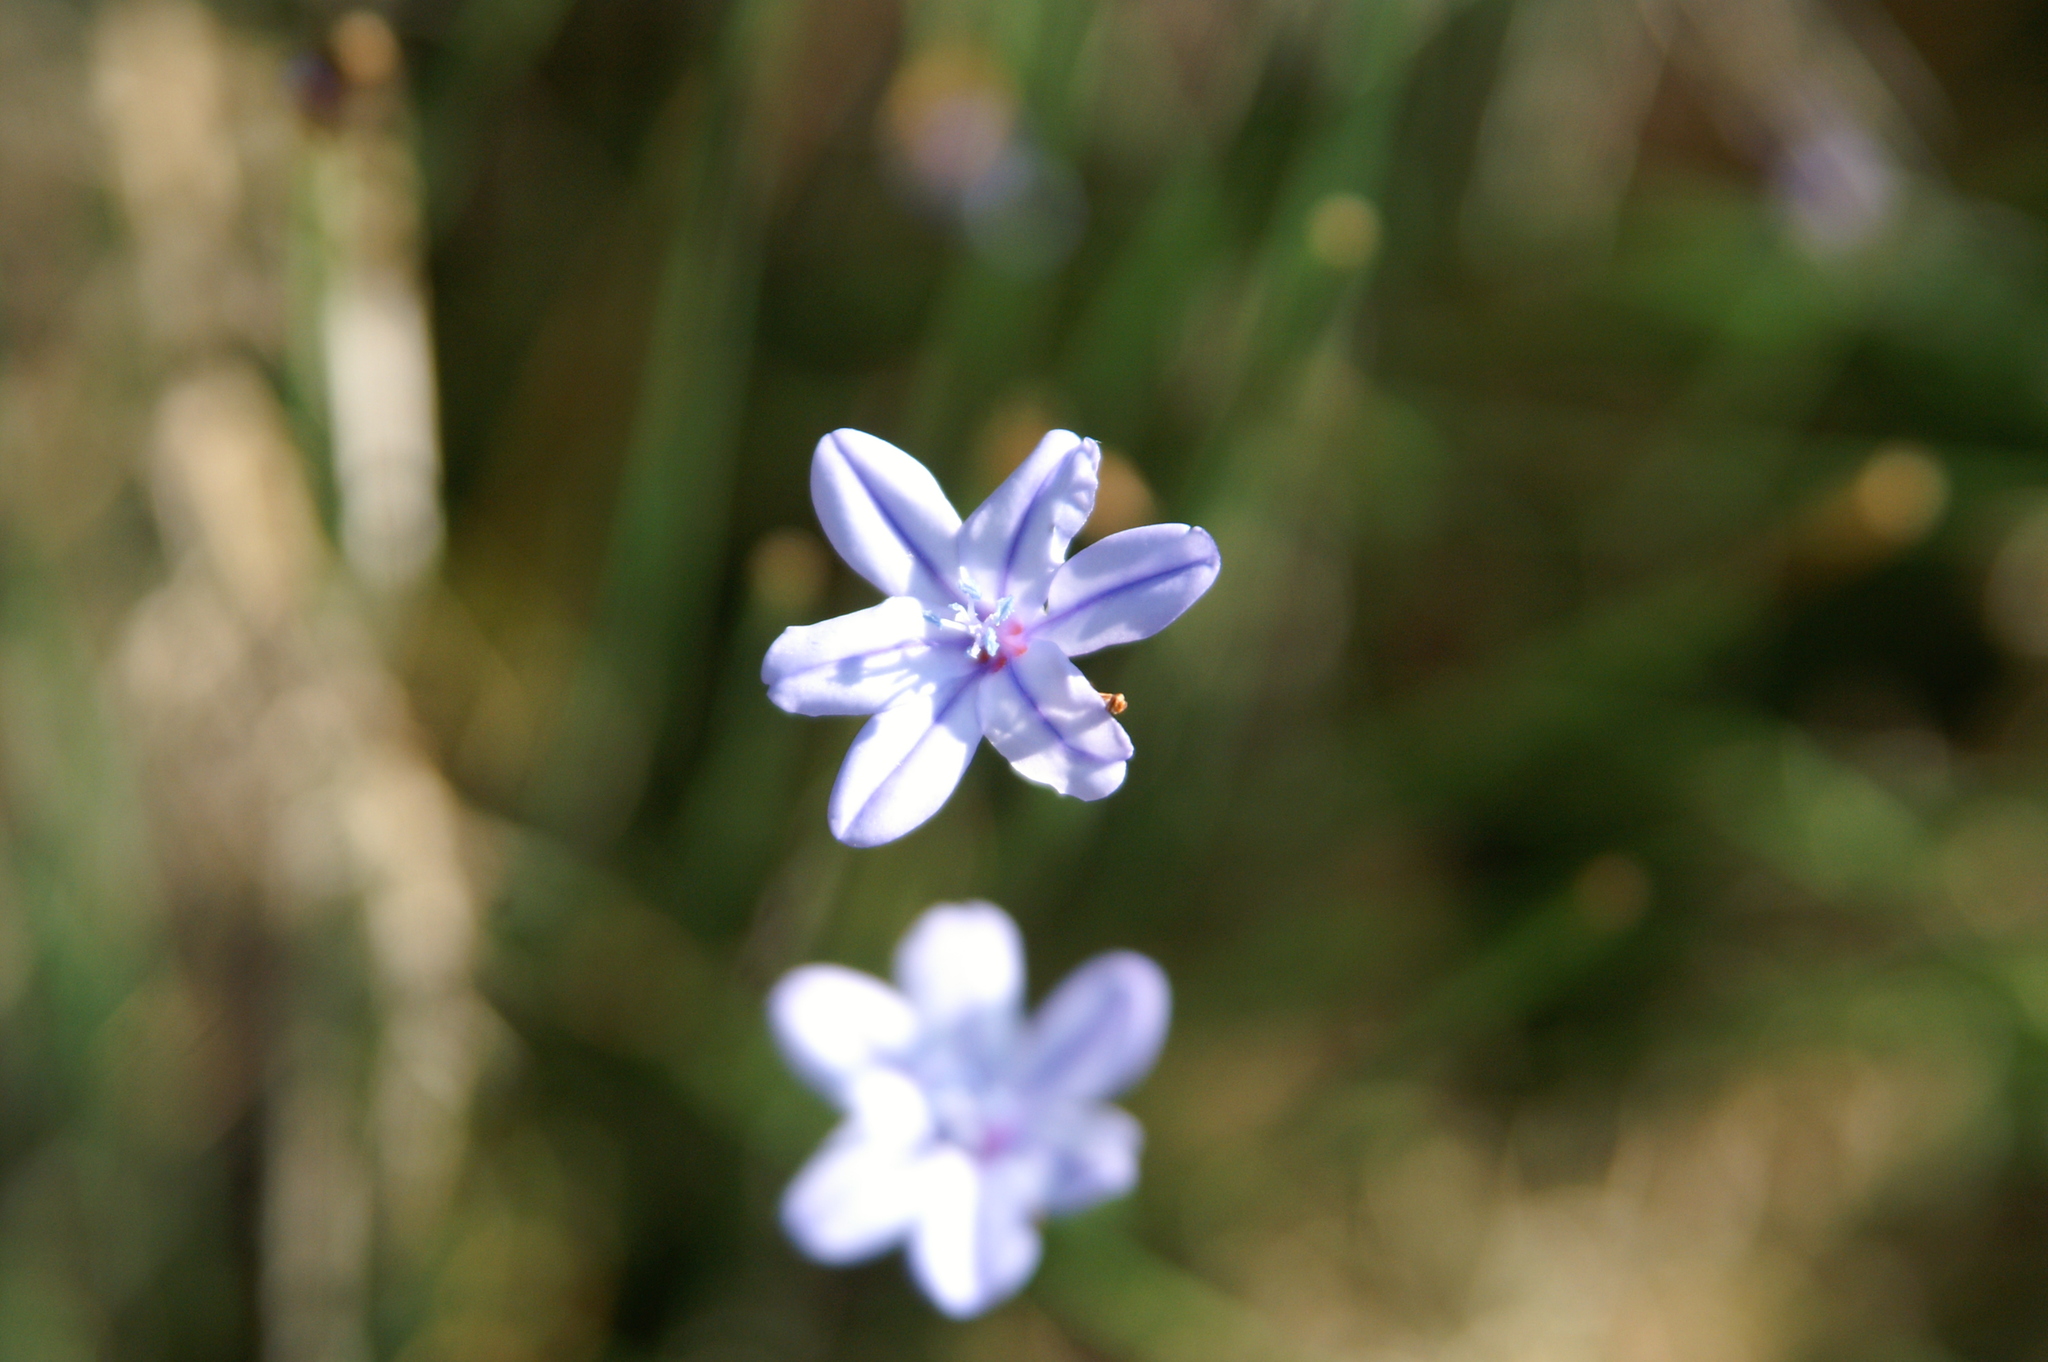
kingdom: Plantae
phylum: Tracheophyta
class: Liliopsida
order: Asparagales
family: Asparagaceae
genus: Aphyllanthes
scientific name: Aphyllanthes monspeliensis
